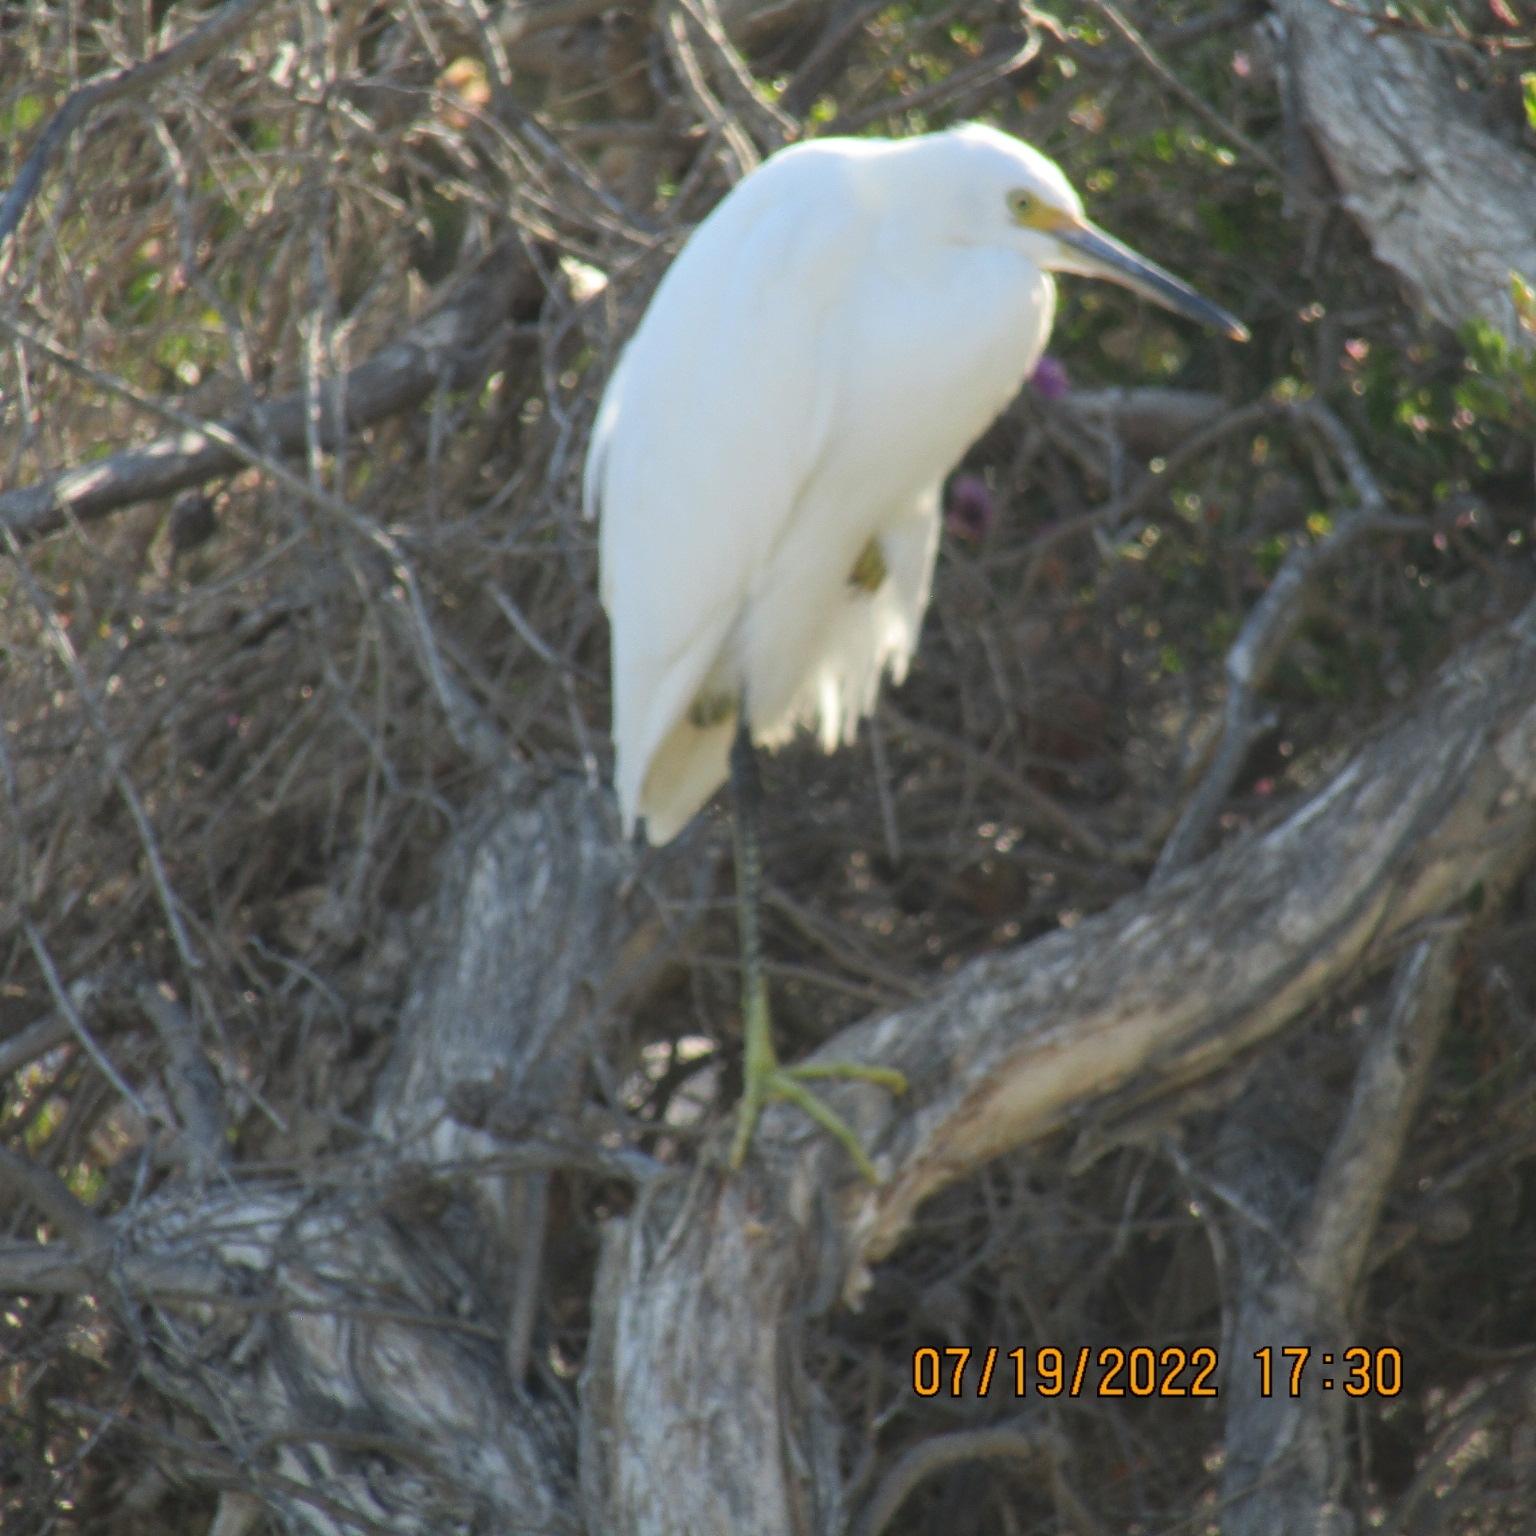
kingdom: Animalia
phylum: Chordata
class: Aves
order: Pelecaniformes
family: Ardeidae
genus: Egretta
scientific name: Egretta thula
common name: Snowy egret
